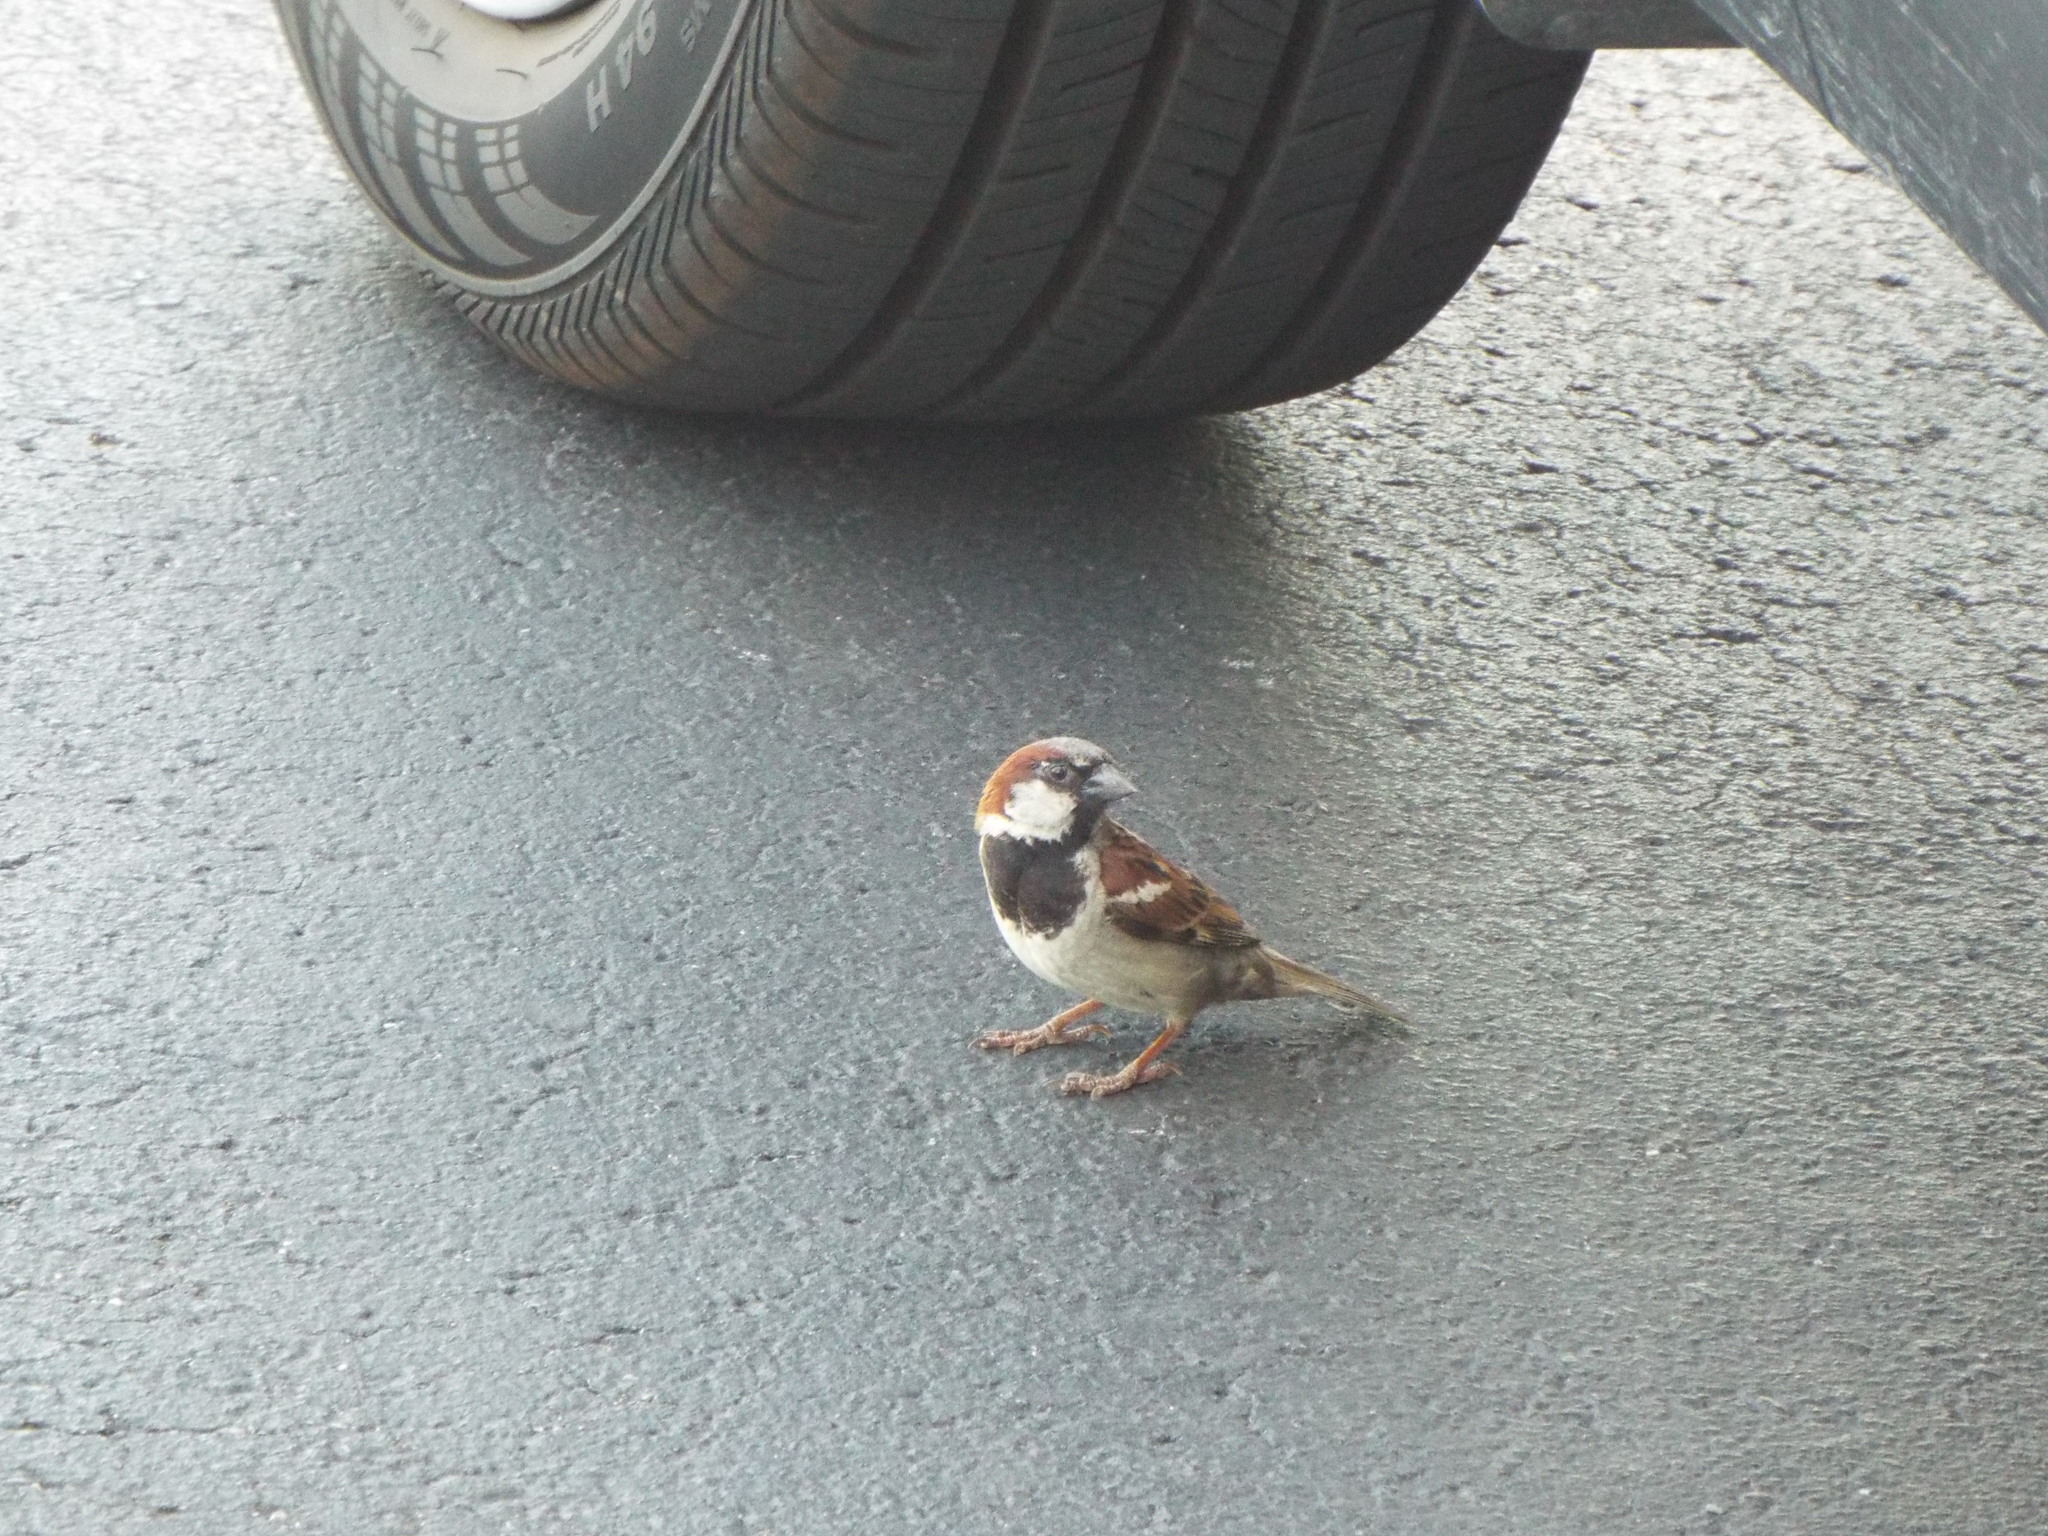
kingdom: Animalia
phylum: Chordata
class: Aves
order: Passeriformes
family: Passeridae
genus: Passer
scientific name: Passer domesticus
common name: House sparrow
